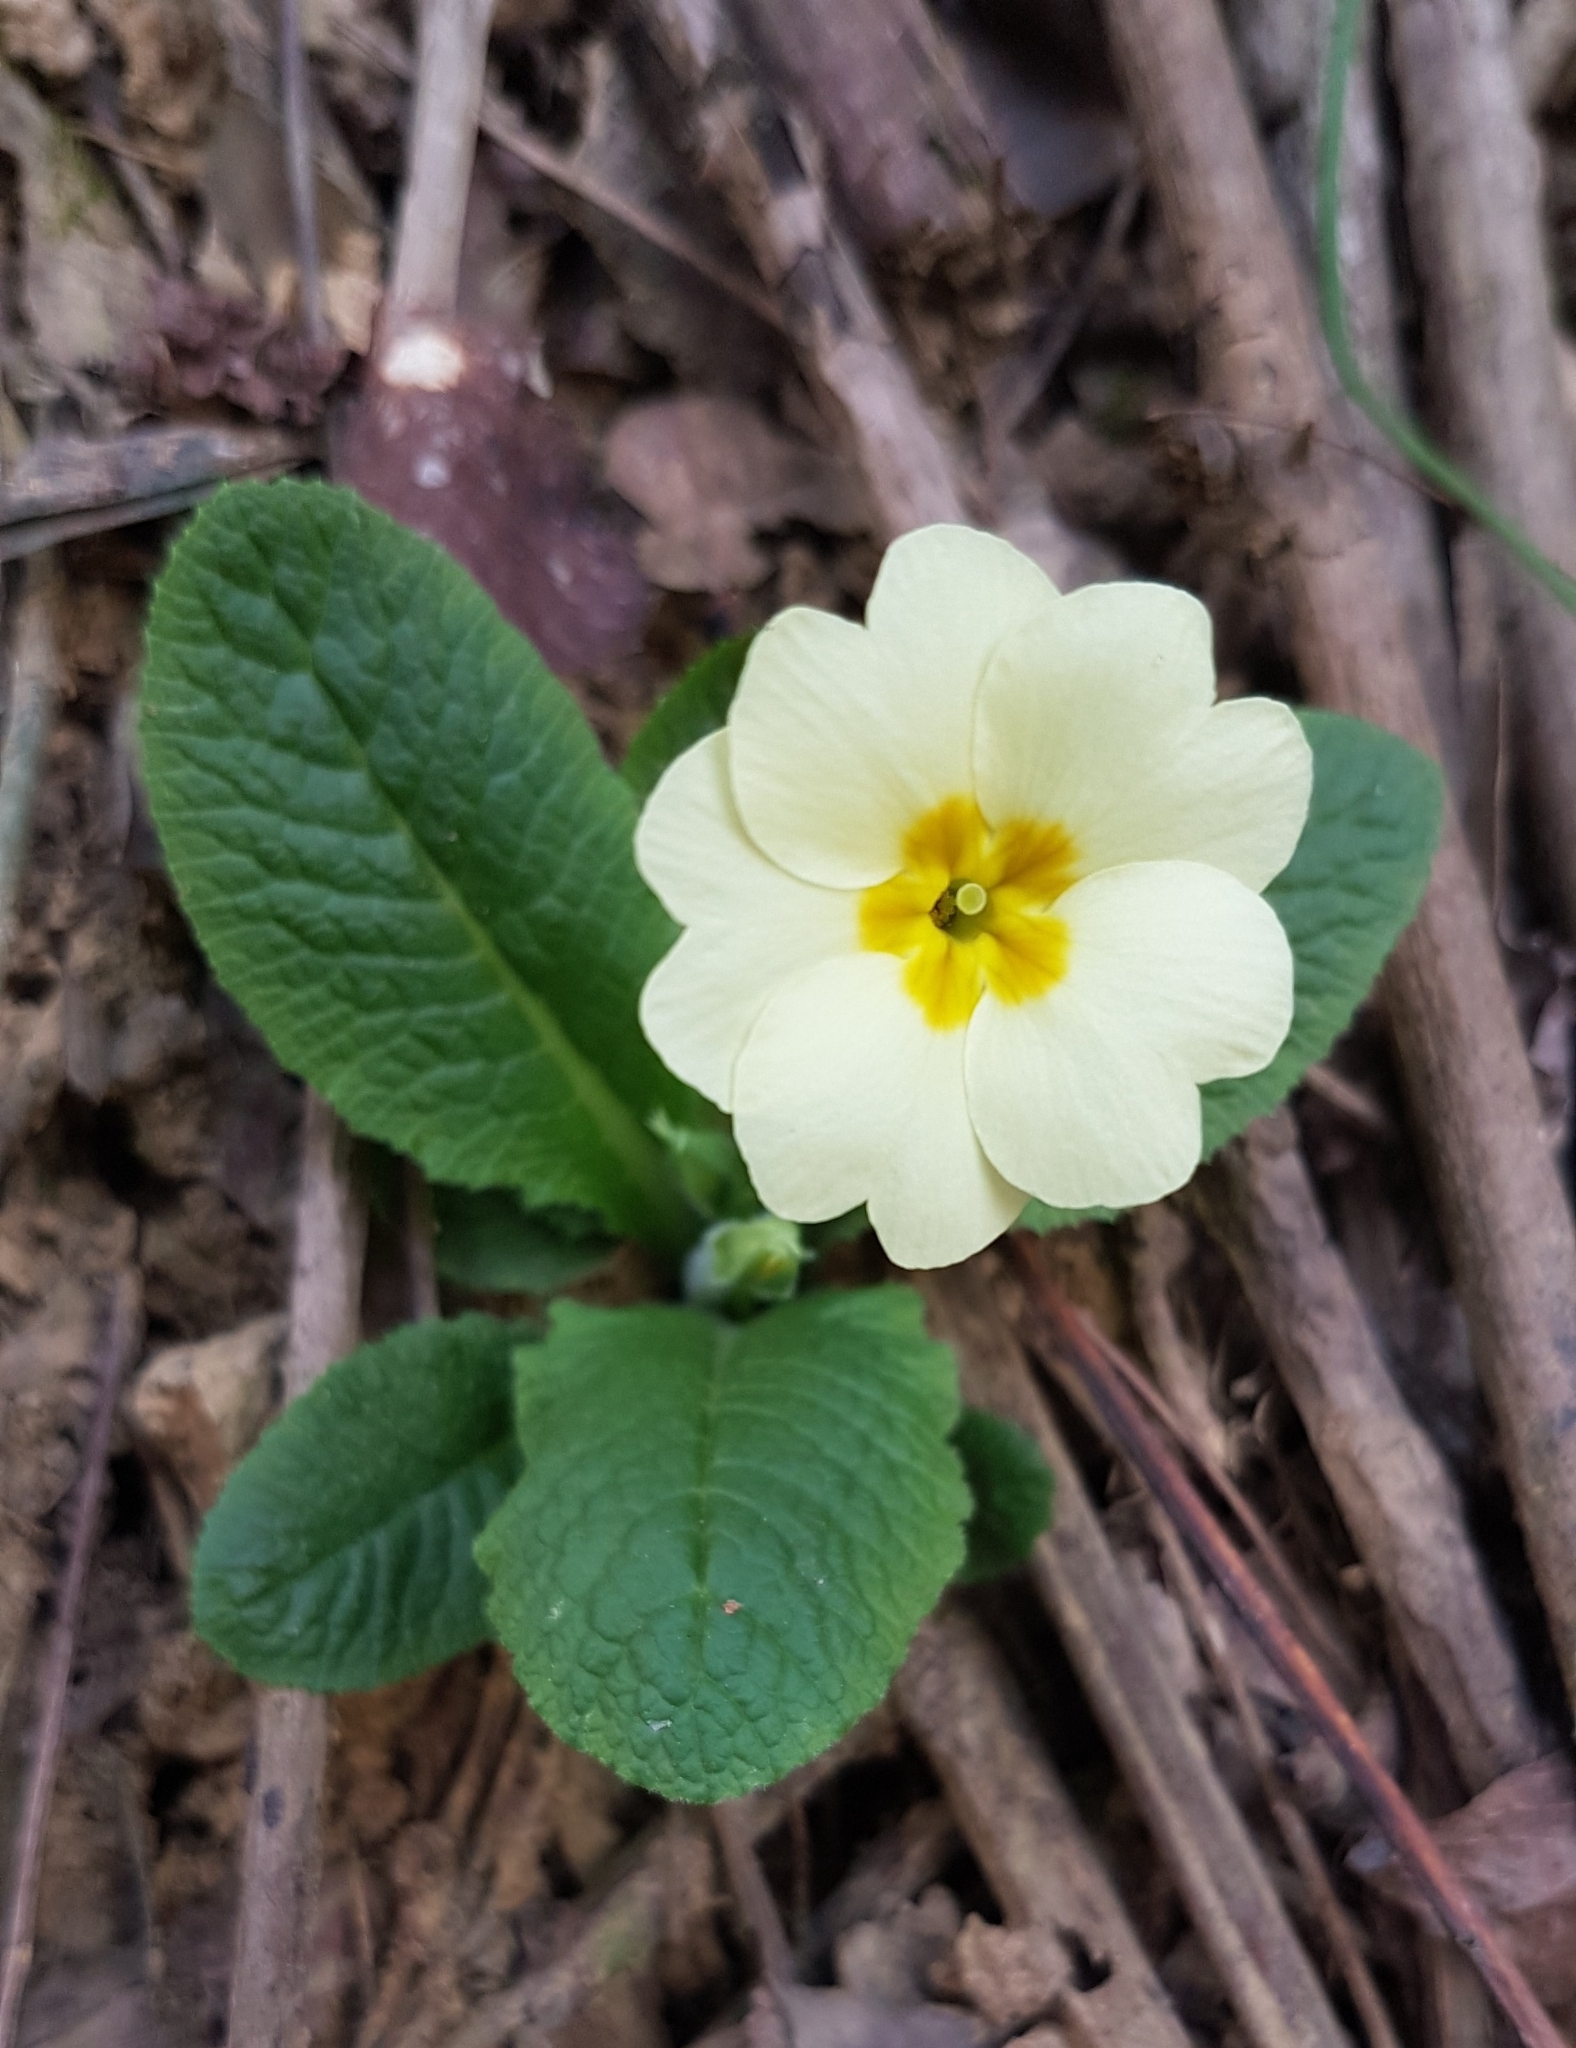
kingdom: Plantae
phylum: Tracheophyta
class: Magnoliopsida
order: Ericales
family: Primulaceae
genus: Primula
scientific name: Primula vulgaris
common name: Primrose
